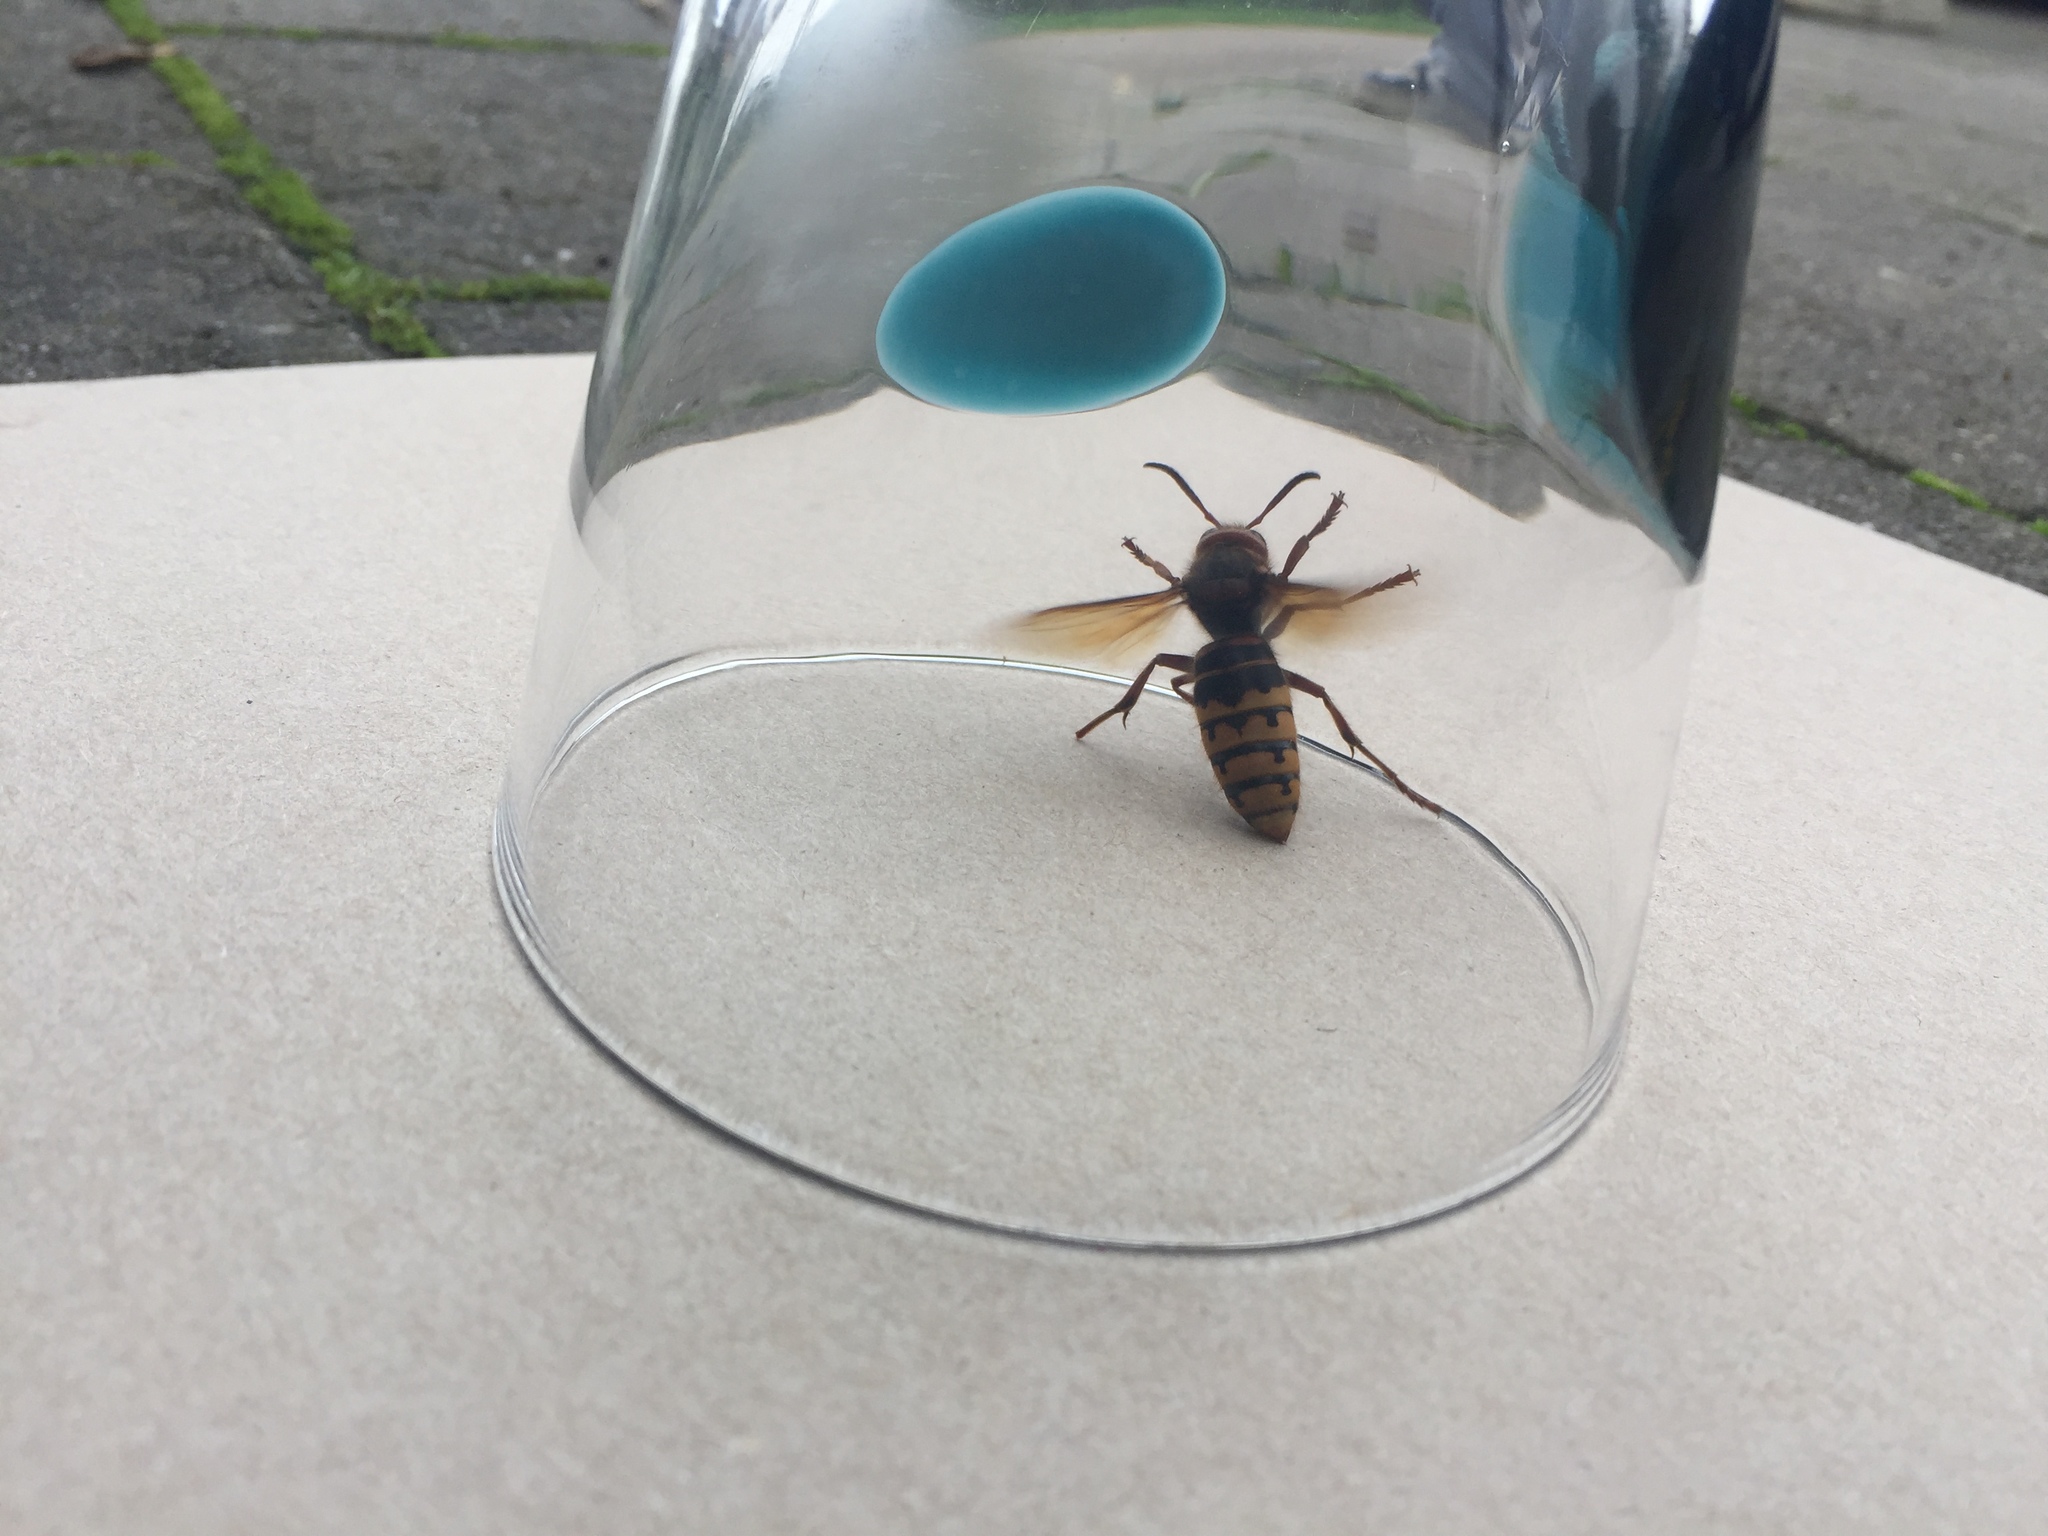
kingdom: Animalia
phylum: Arthropoda
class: Insecta
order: Hymenoptera
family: Vespidae
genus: Vespa
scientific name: Vespa crabro
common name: Hornet
